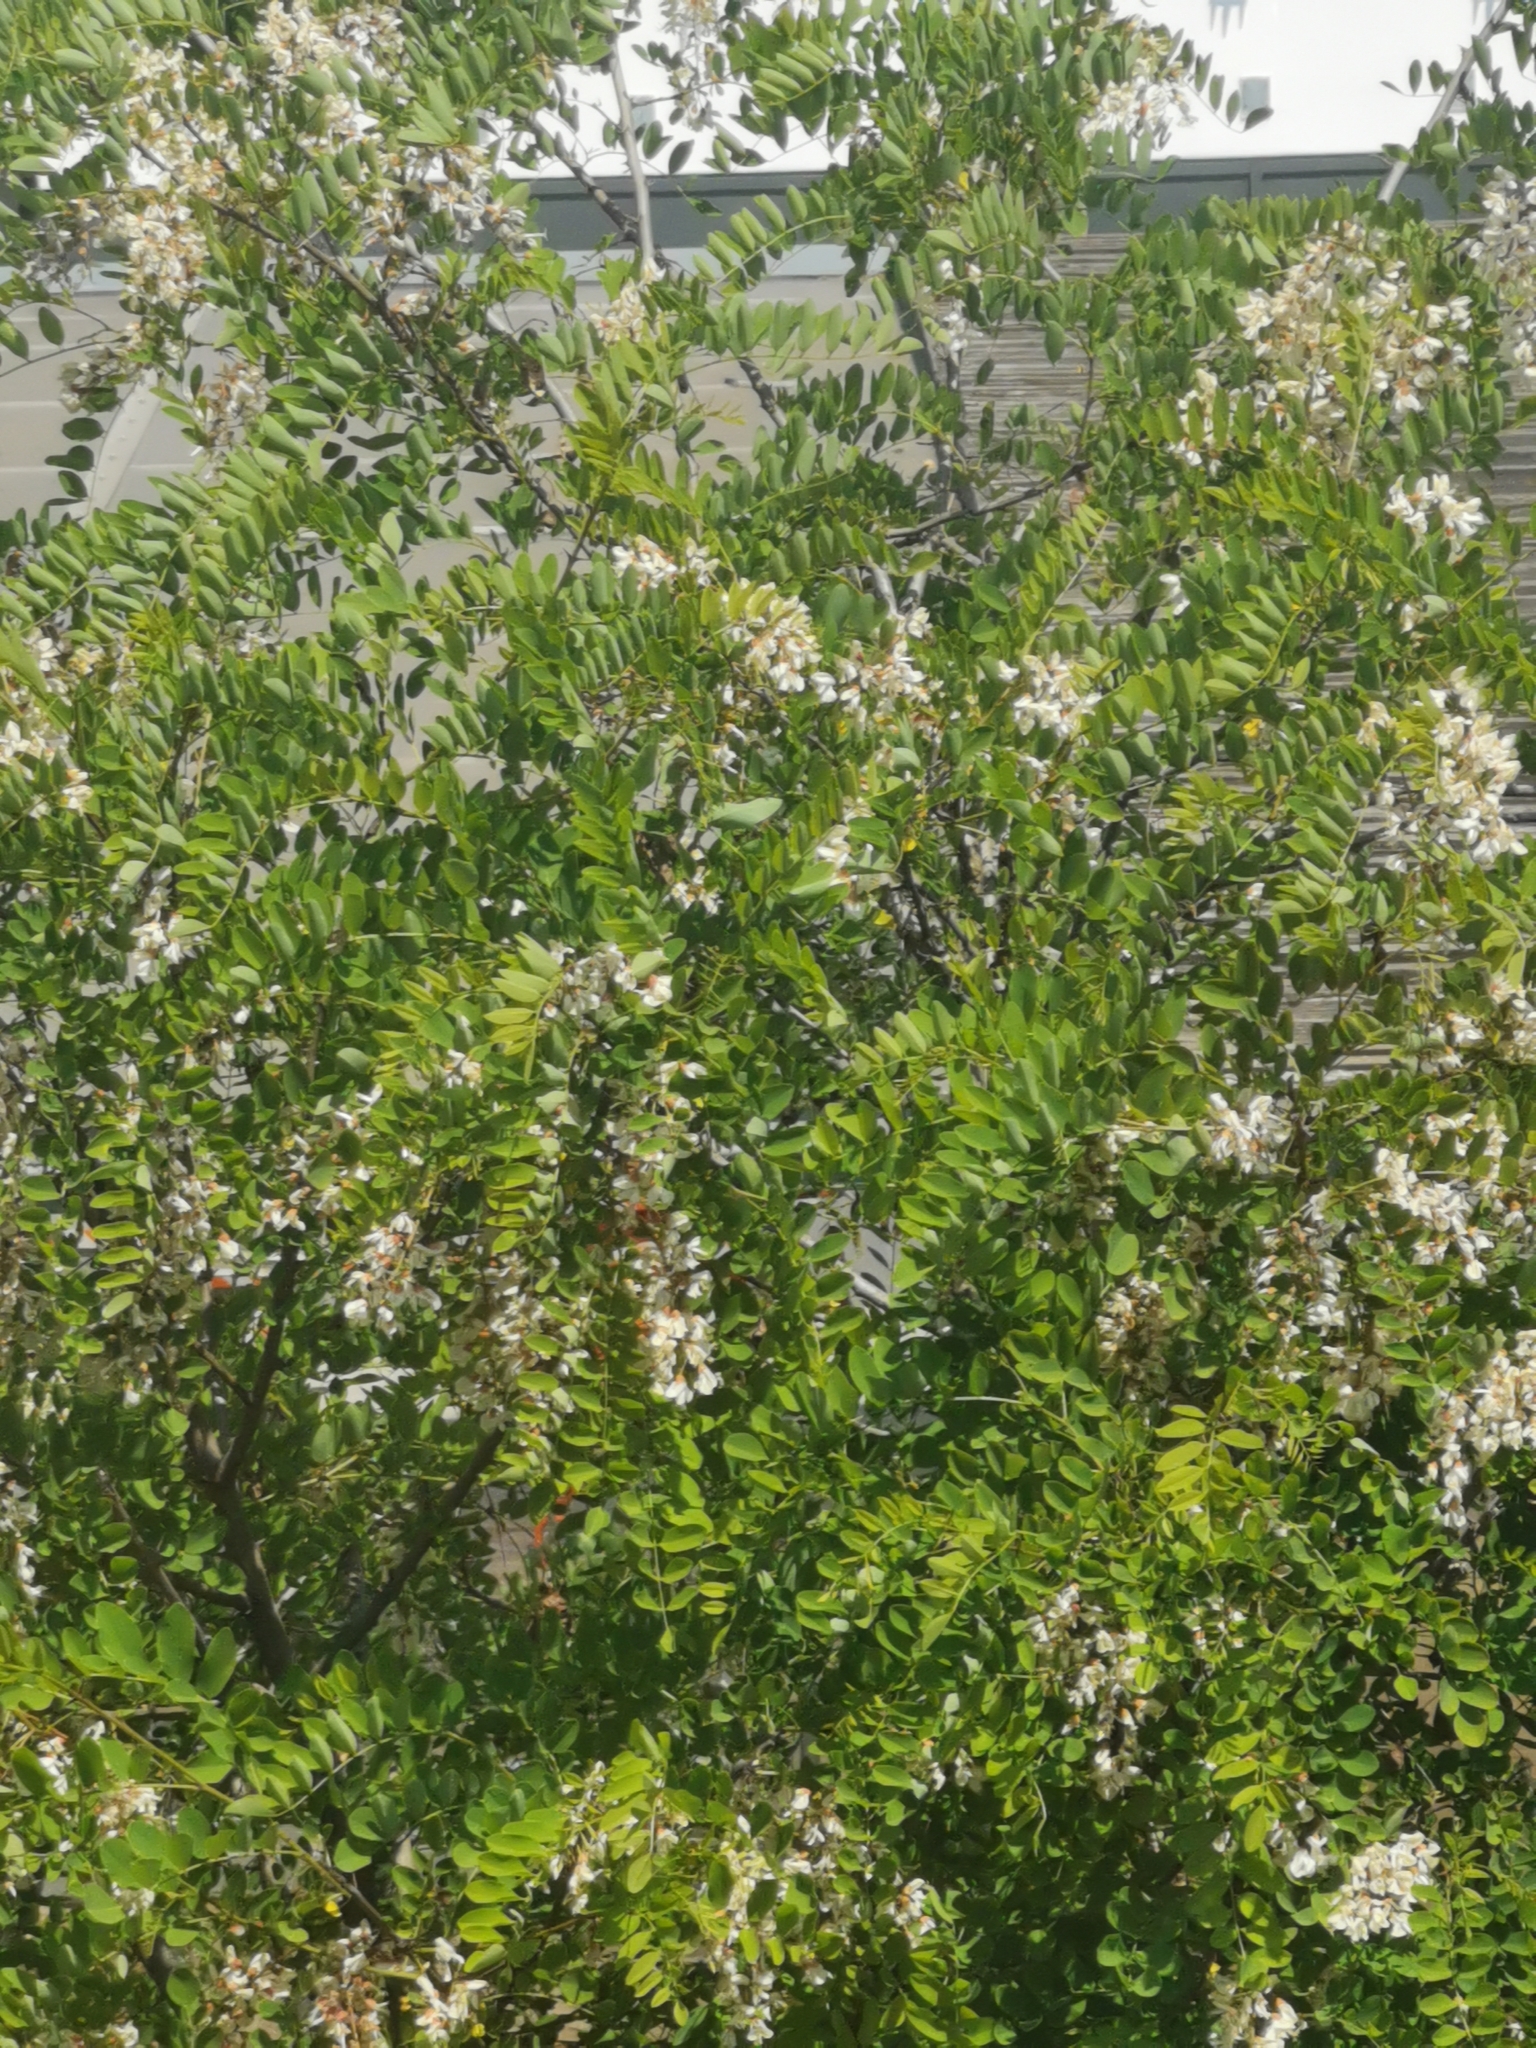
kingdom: Plantae
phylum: Tracheophyta
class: Magnoliopsida
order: Fabales
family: Fabaceae
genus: Robinia
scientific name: Robinia pseudoacacia
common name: Black locust
